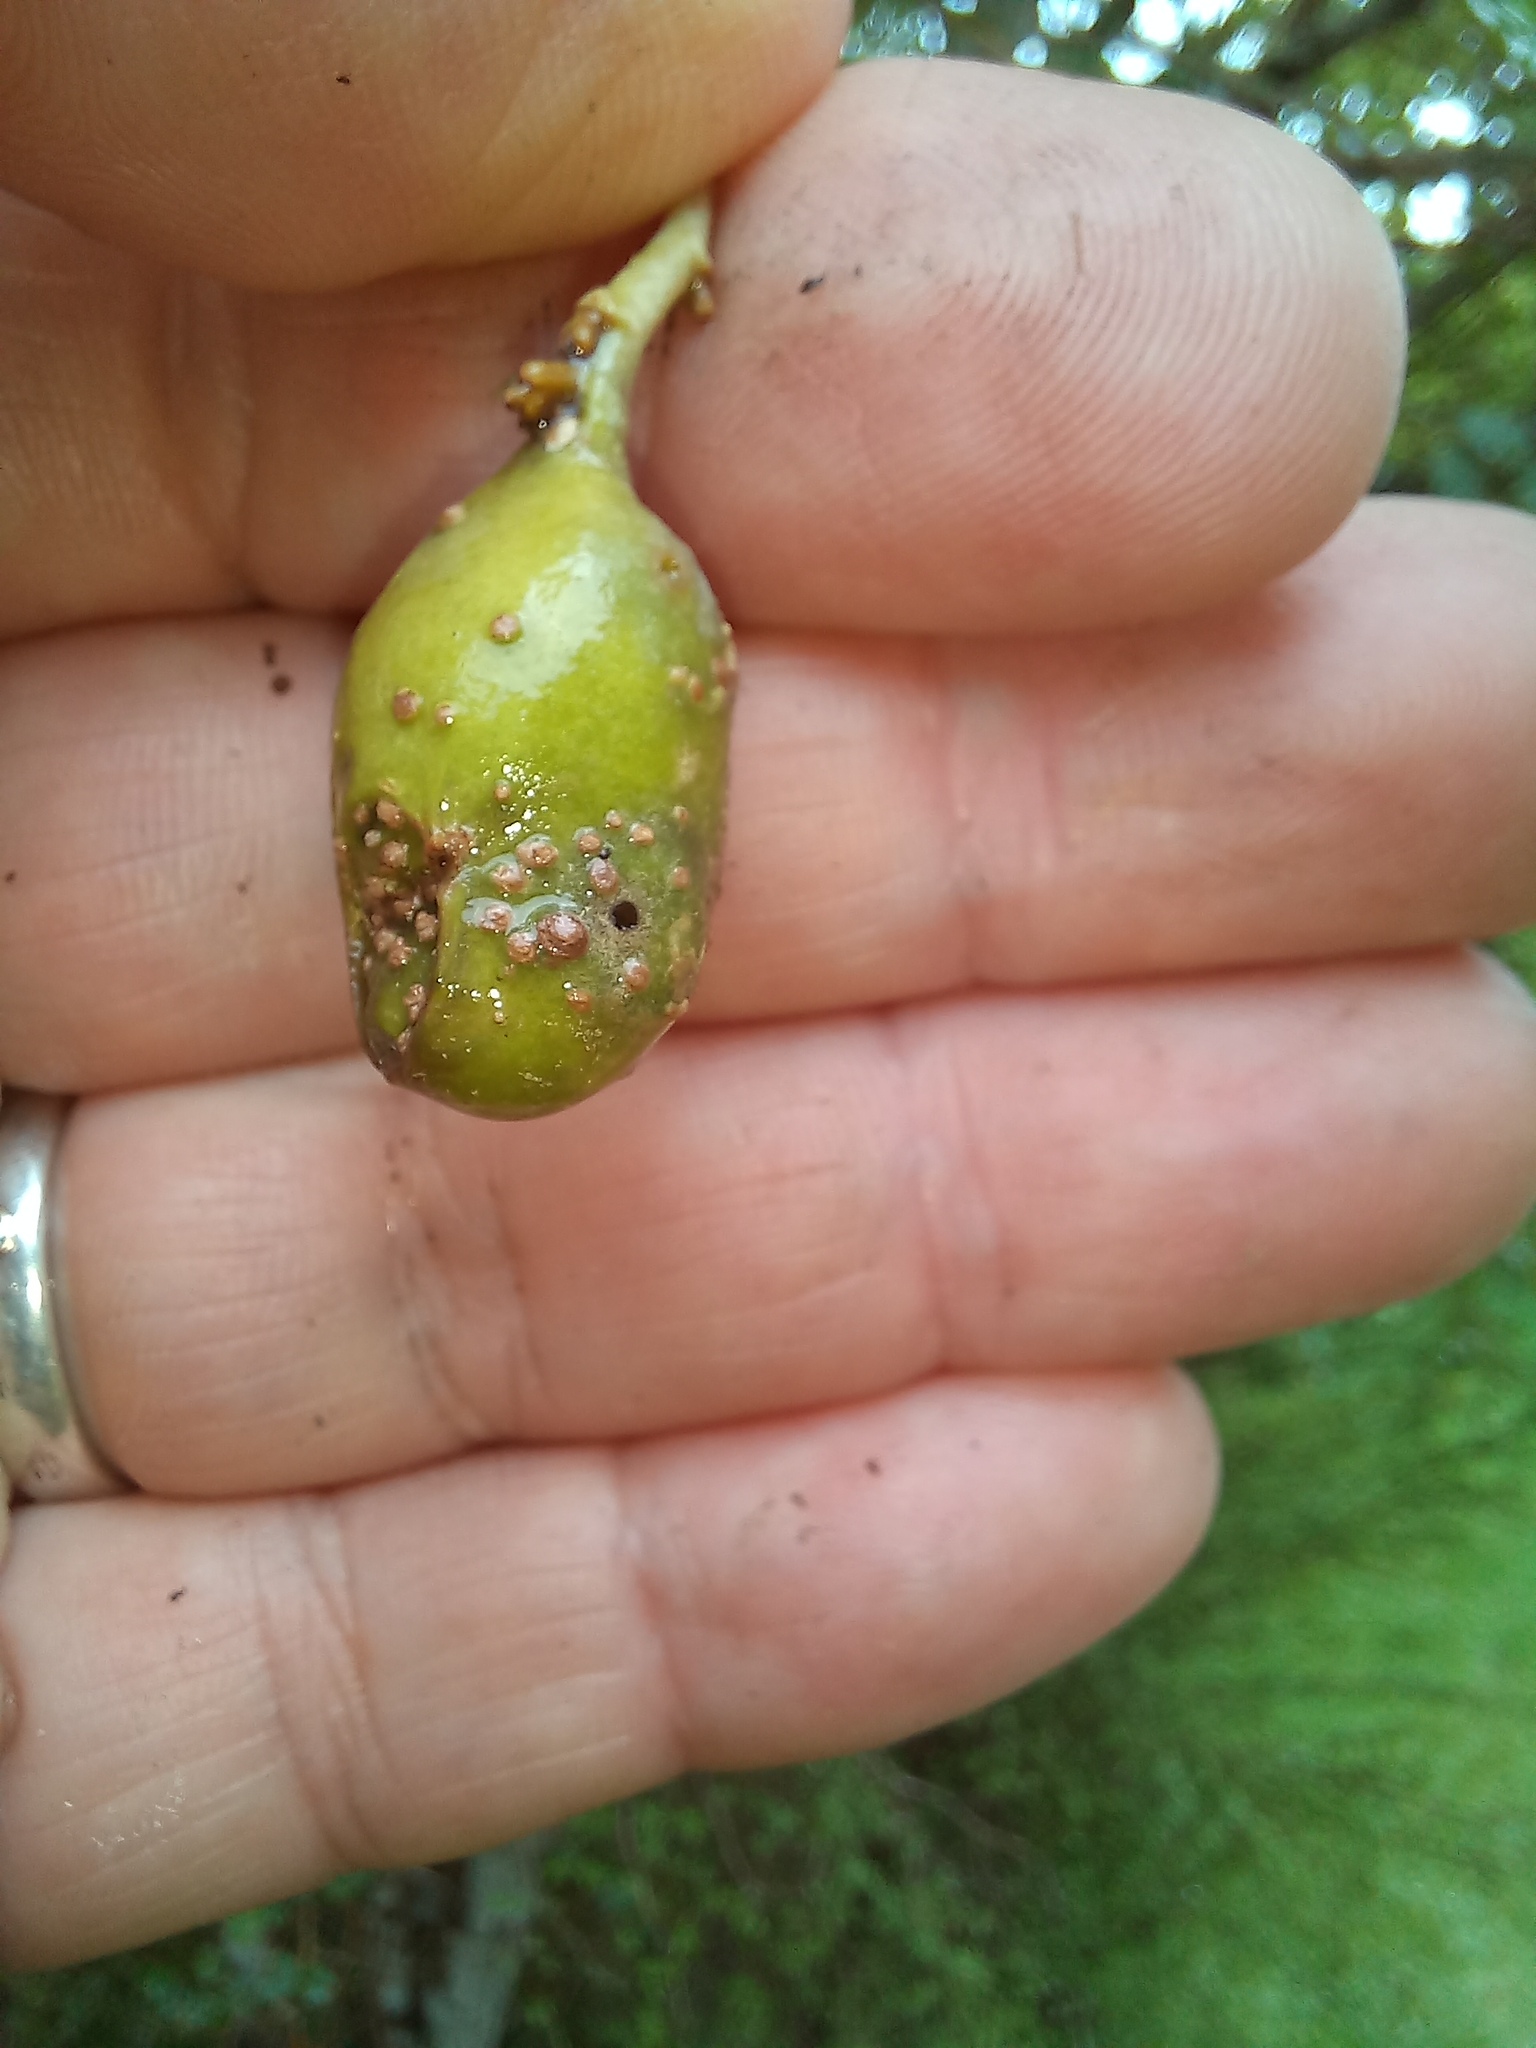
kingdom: Plantae
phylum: Tracheophyta
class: Magnoliopsida
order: Asterales
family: Rousseaceae
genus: Carpodetus
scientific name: Carpodetus serratus
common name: White mapau
